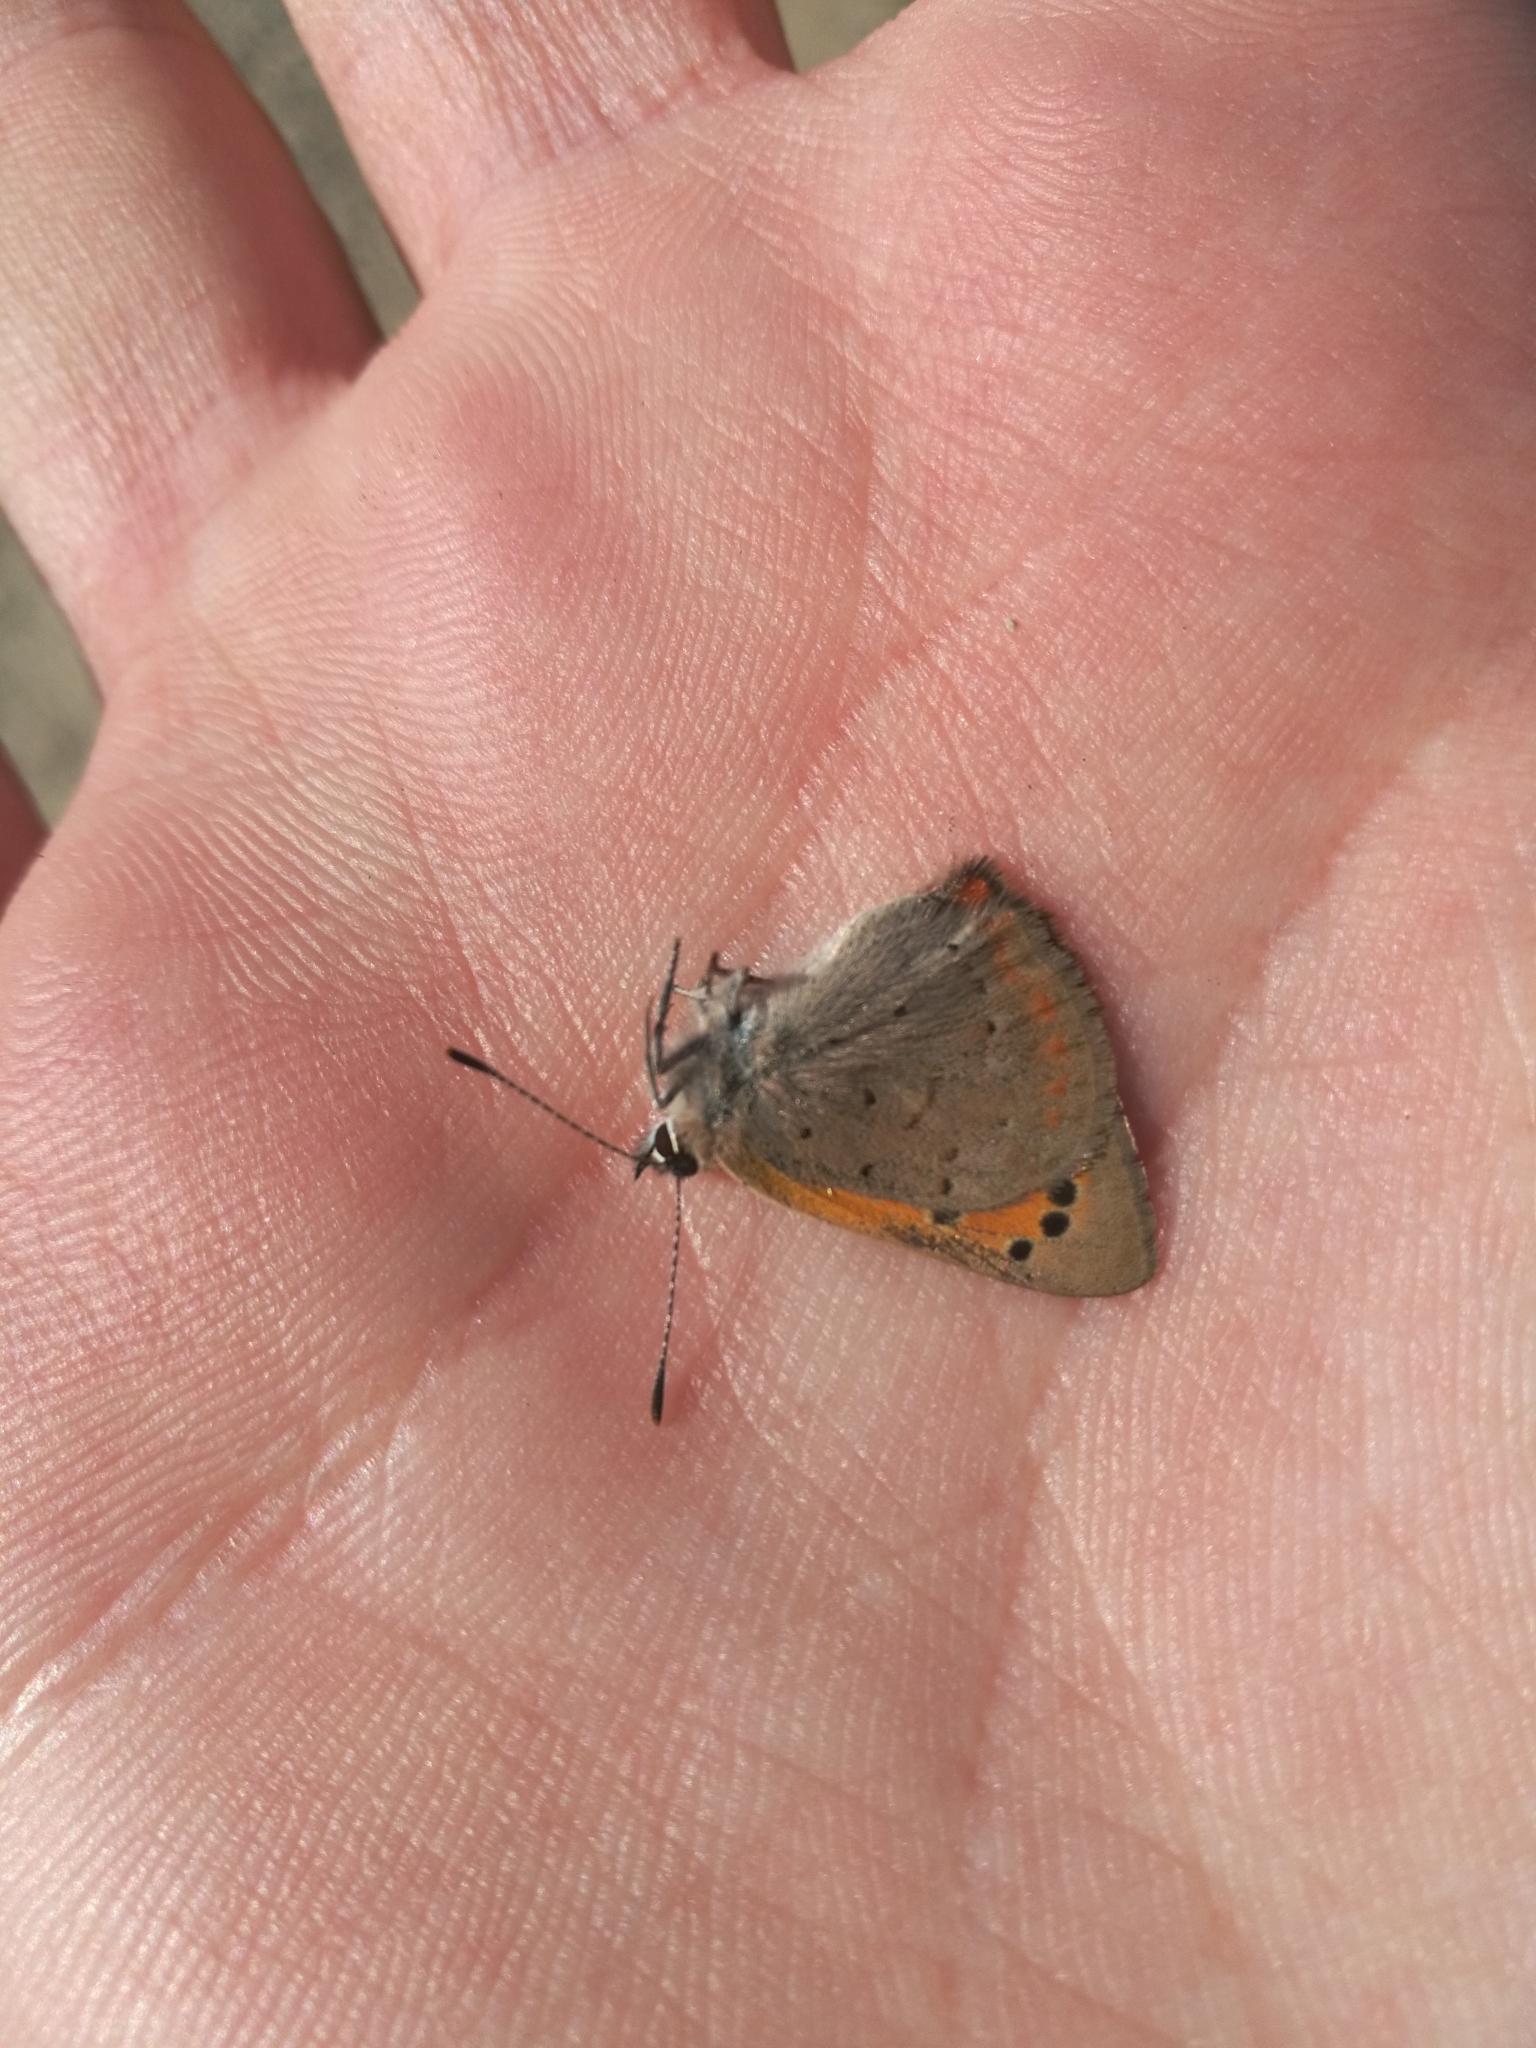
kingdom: Animalia
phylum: Arthropoda
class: Insecta
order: Lepidoptera
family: Lycaenidae
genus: Lycaena
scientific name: Lycaena phlaeas
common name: Small copper
